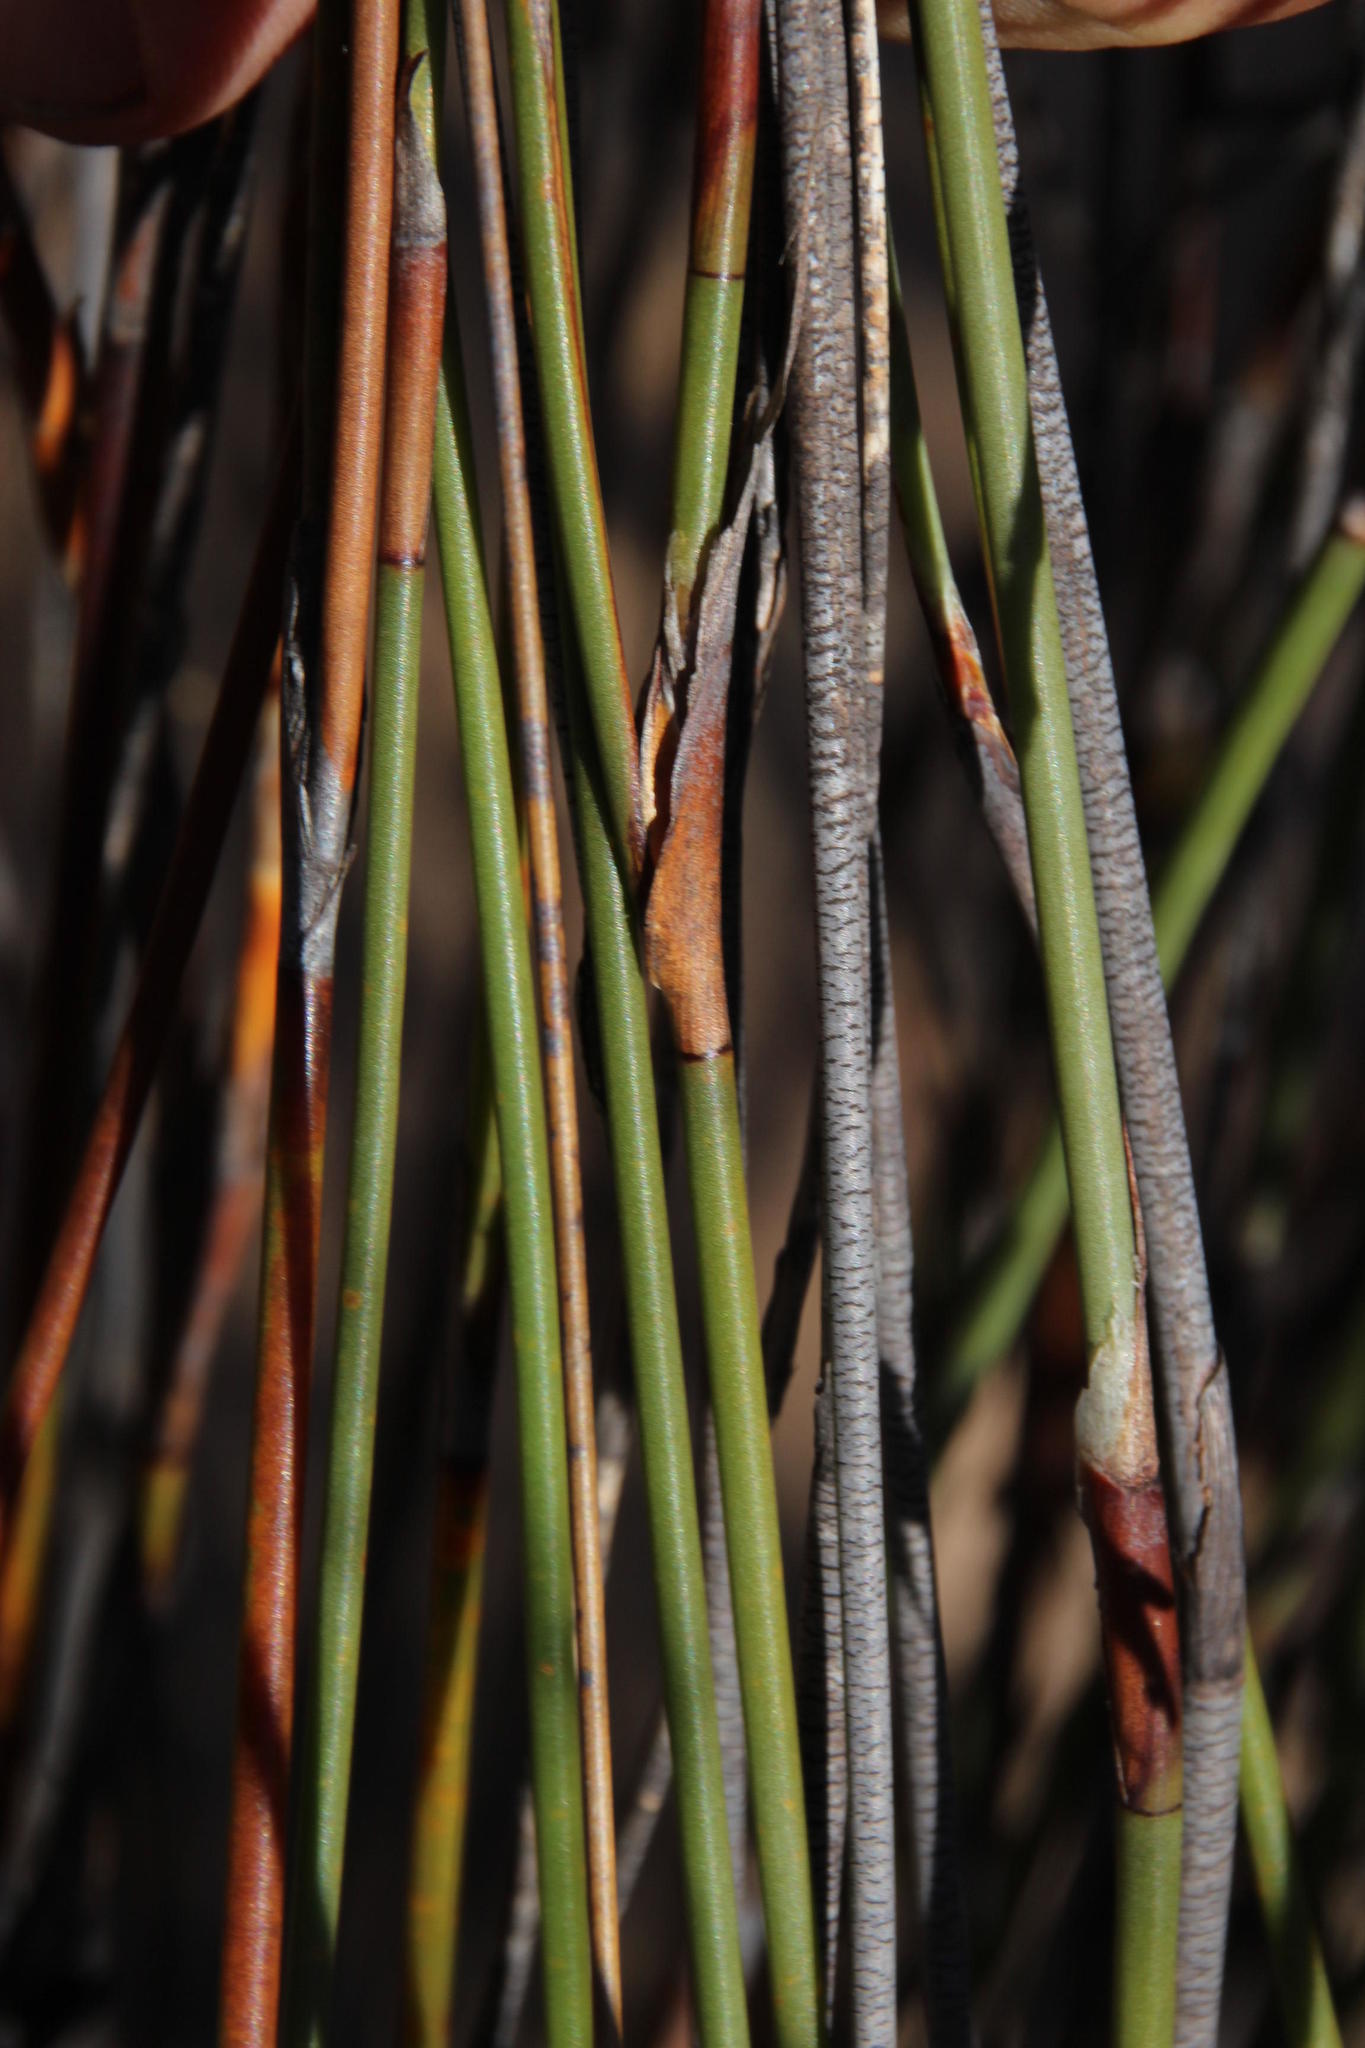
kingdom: Plantae
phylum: Tracheophyta
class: Liliopsida
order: Poales
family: Restionaceae
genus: Willdenowia
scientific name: Willdenowia glomerata
